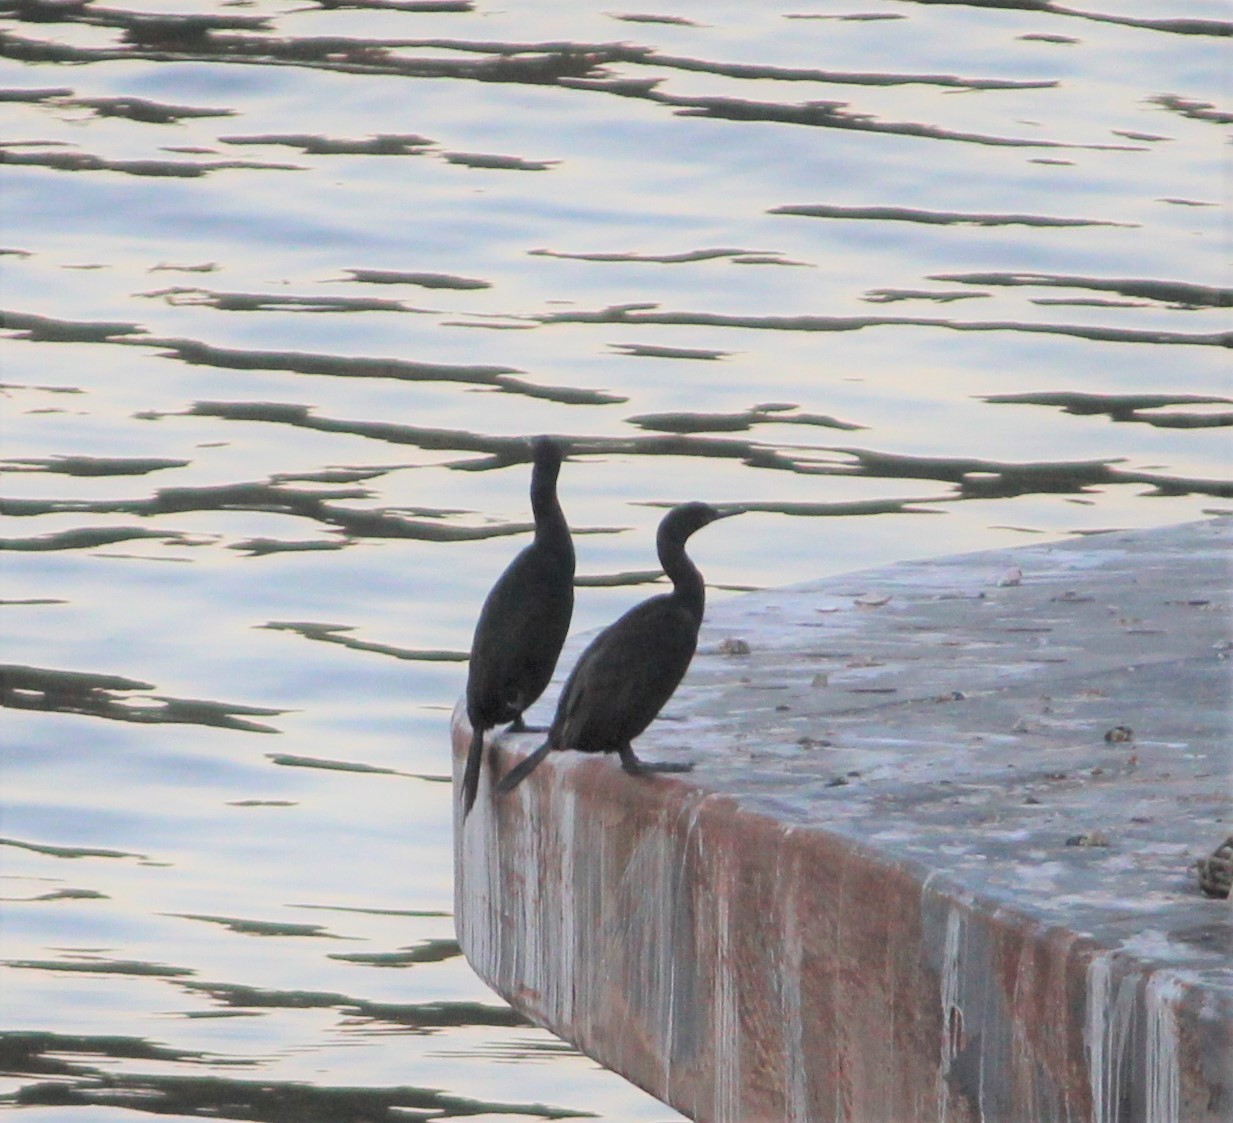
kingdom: Animalia
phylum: Chordata
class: Aves
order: Suliformes
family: Phalacrocoracidae
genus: Phalacrocorax
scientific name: Phalacrocorax pelagicus
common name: Pelagic cormorant
